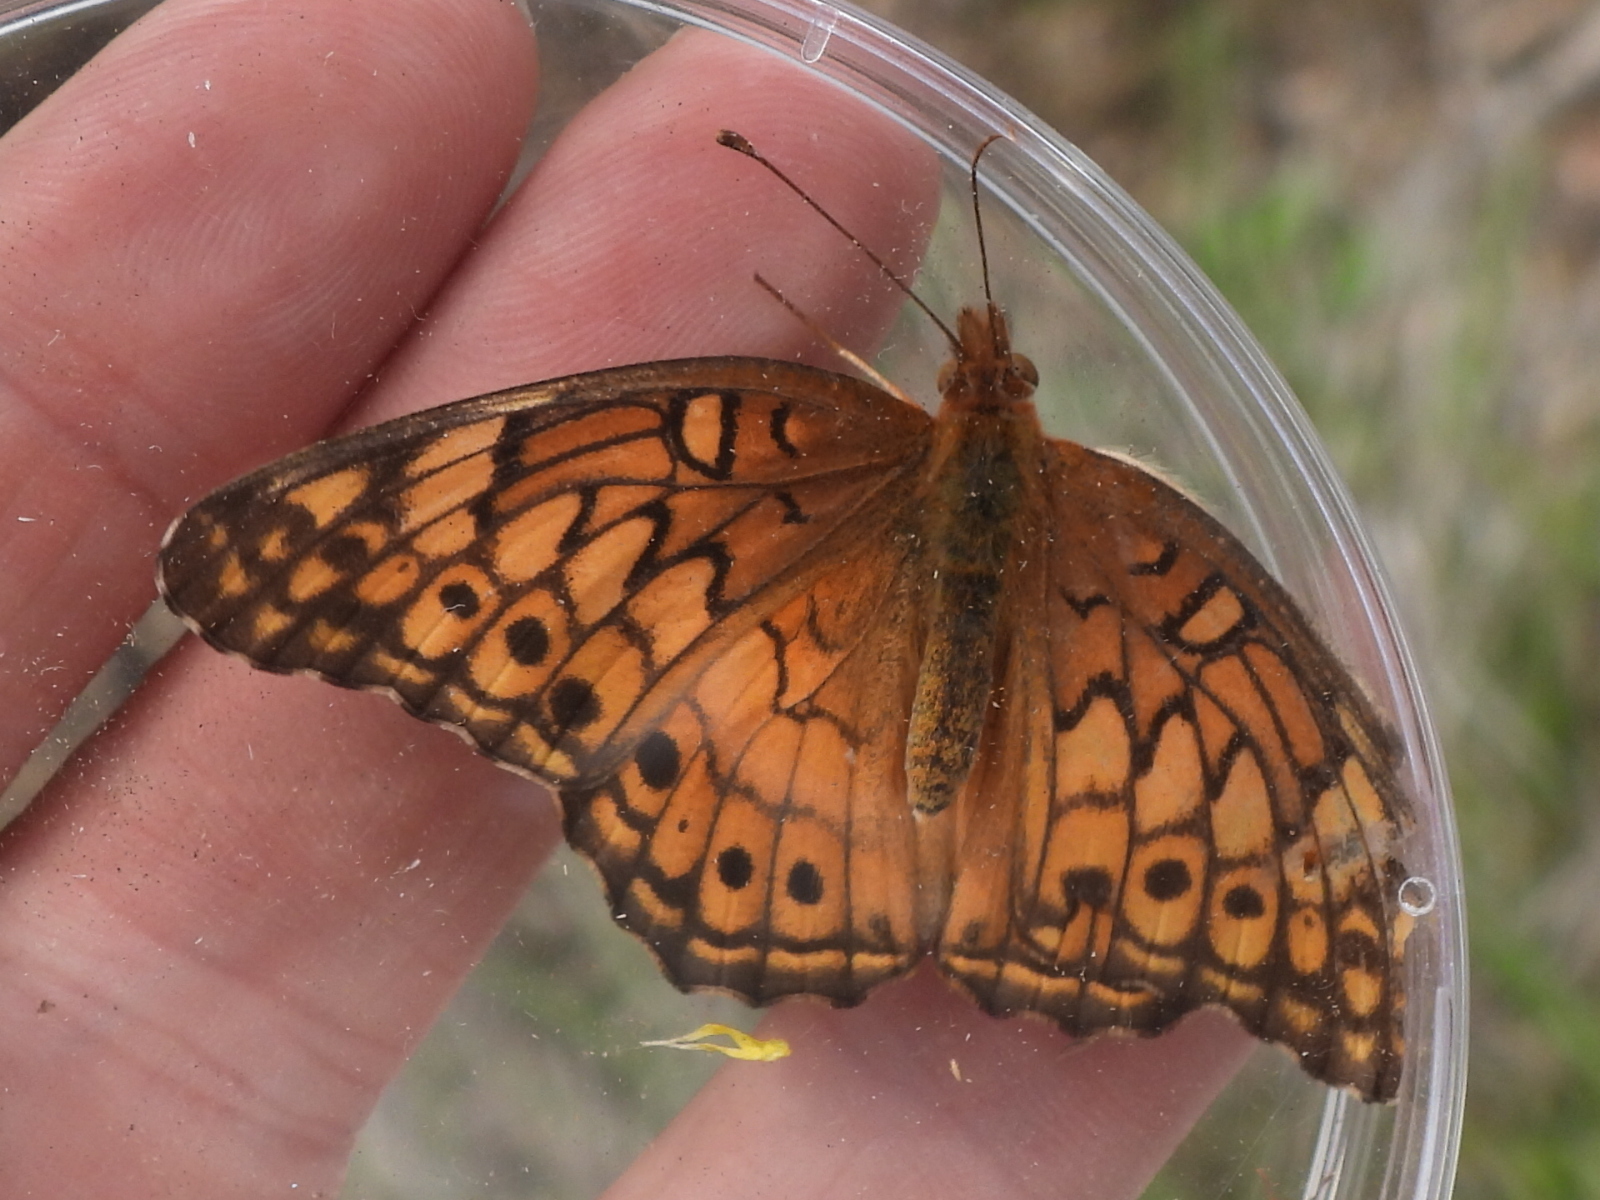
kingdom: Animalia
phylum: Arthropoda
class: Insecta
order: Lepidoptera
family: Nymphalidae
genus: Euptoieta
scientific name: Euptoieta claudia
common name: Variegated fritillary
